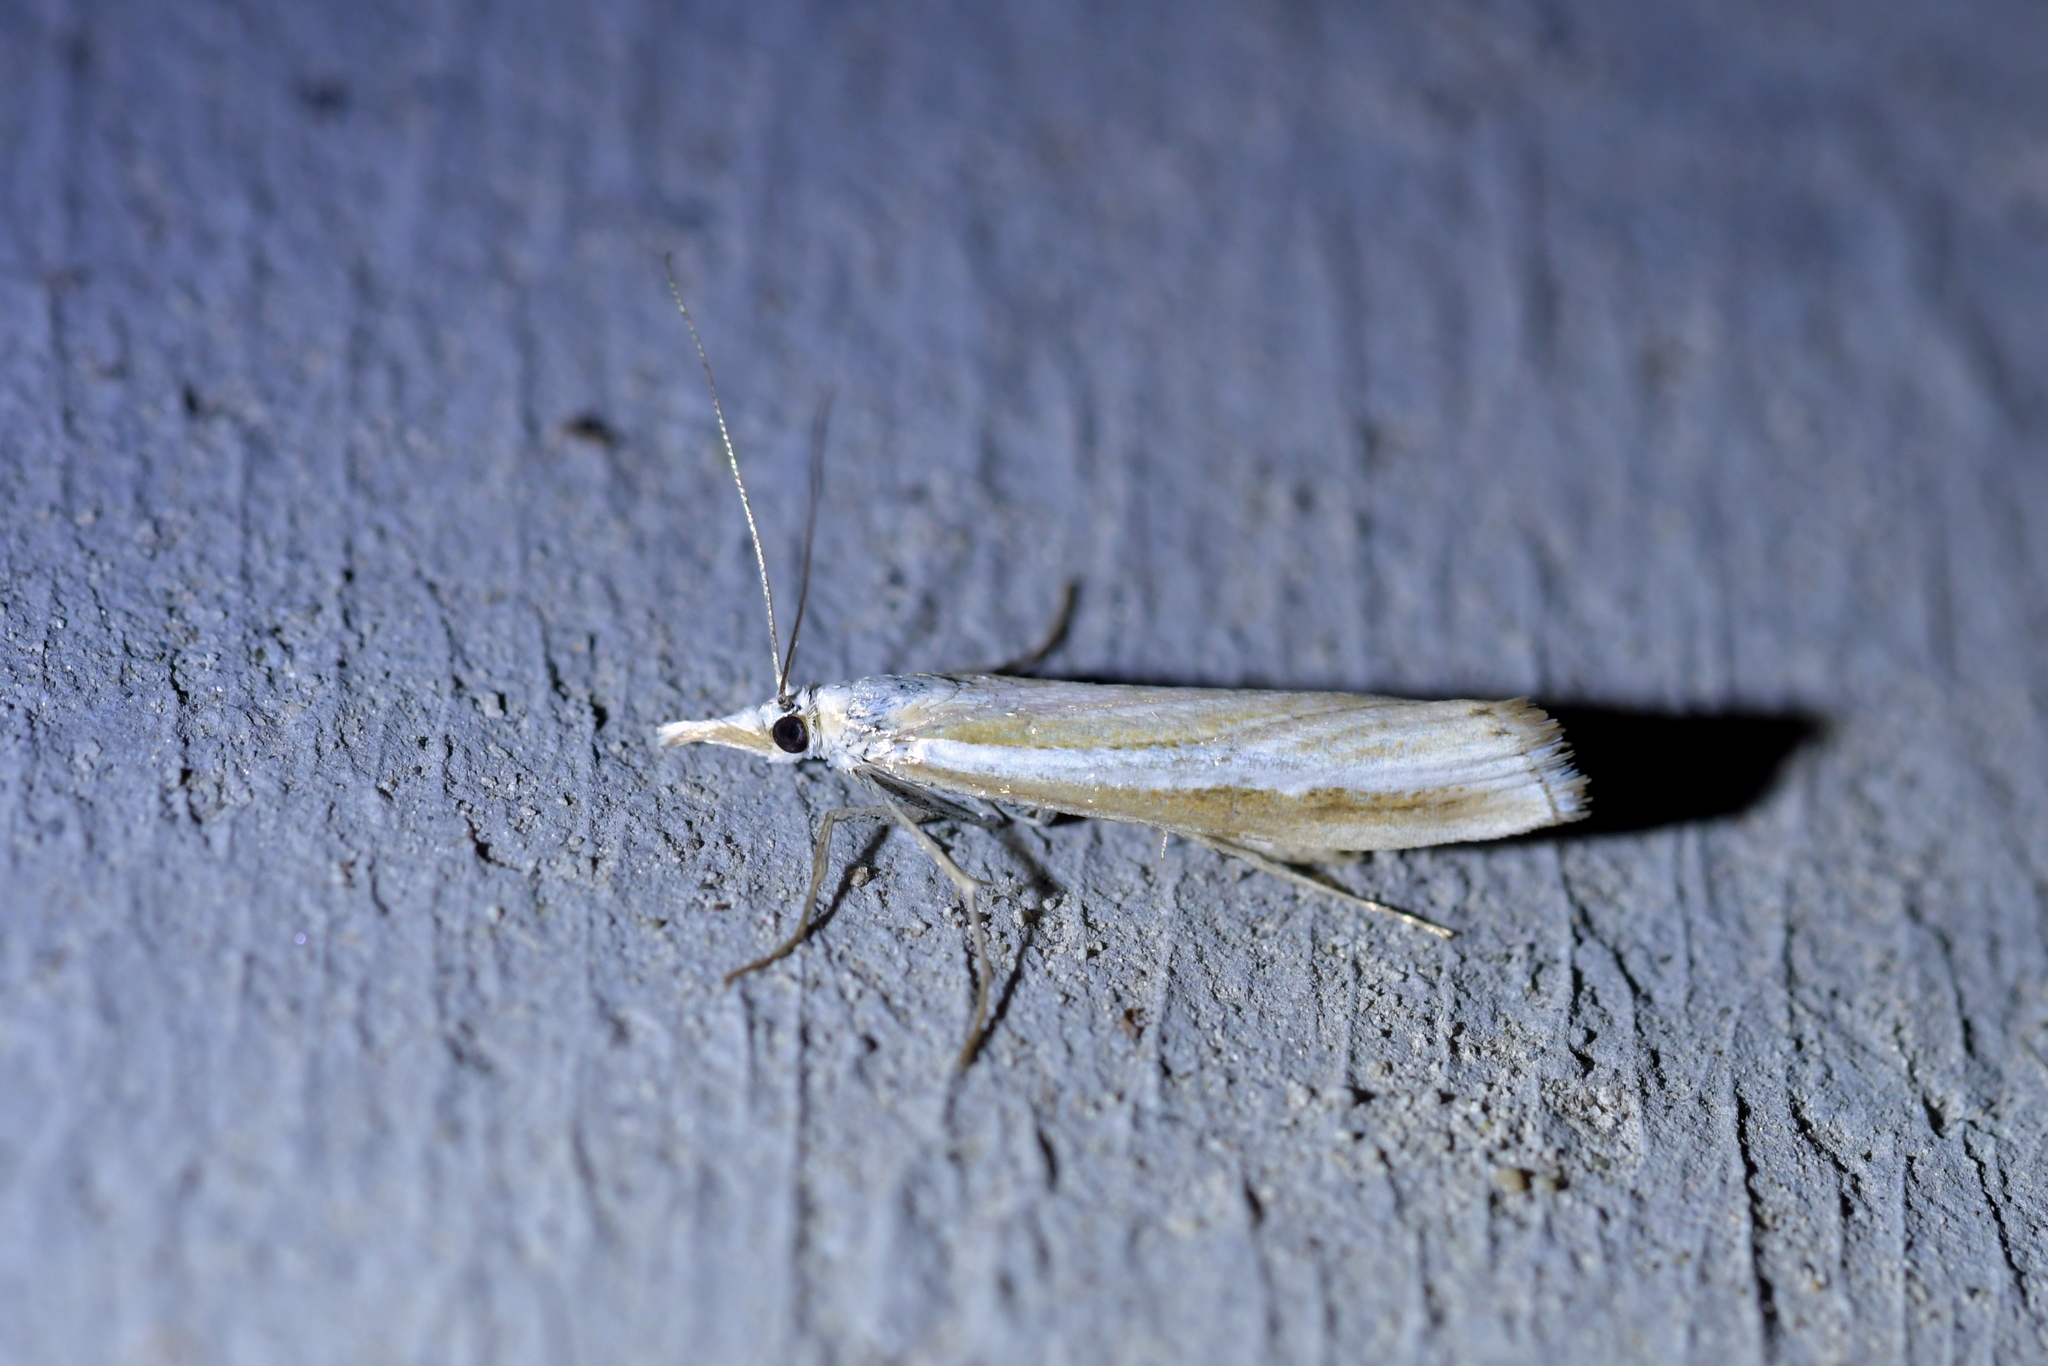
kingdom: Animalia
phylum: Arthropoda
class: Insecta
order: Lepidoptera
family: Crambidae
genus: Orocrambus
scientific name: Orocrambus vittellus
